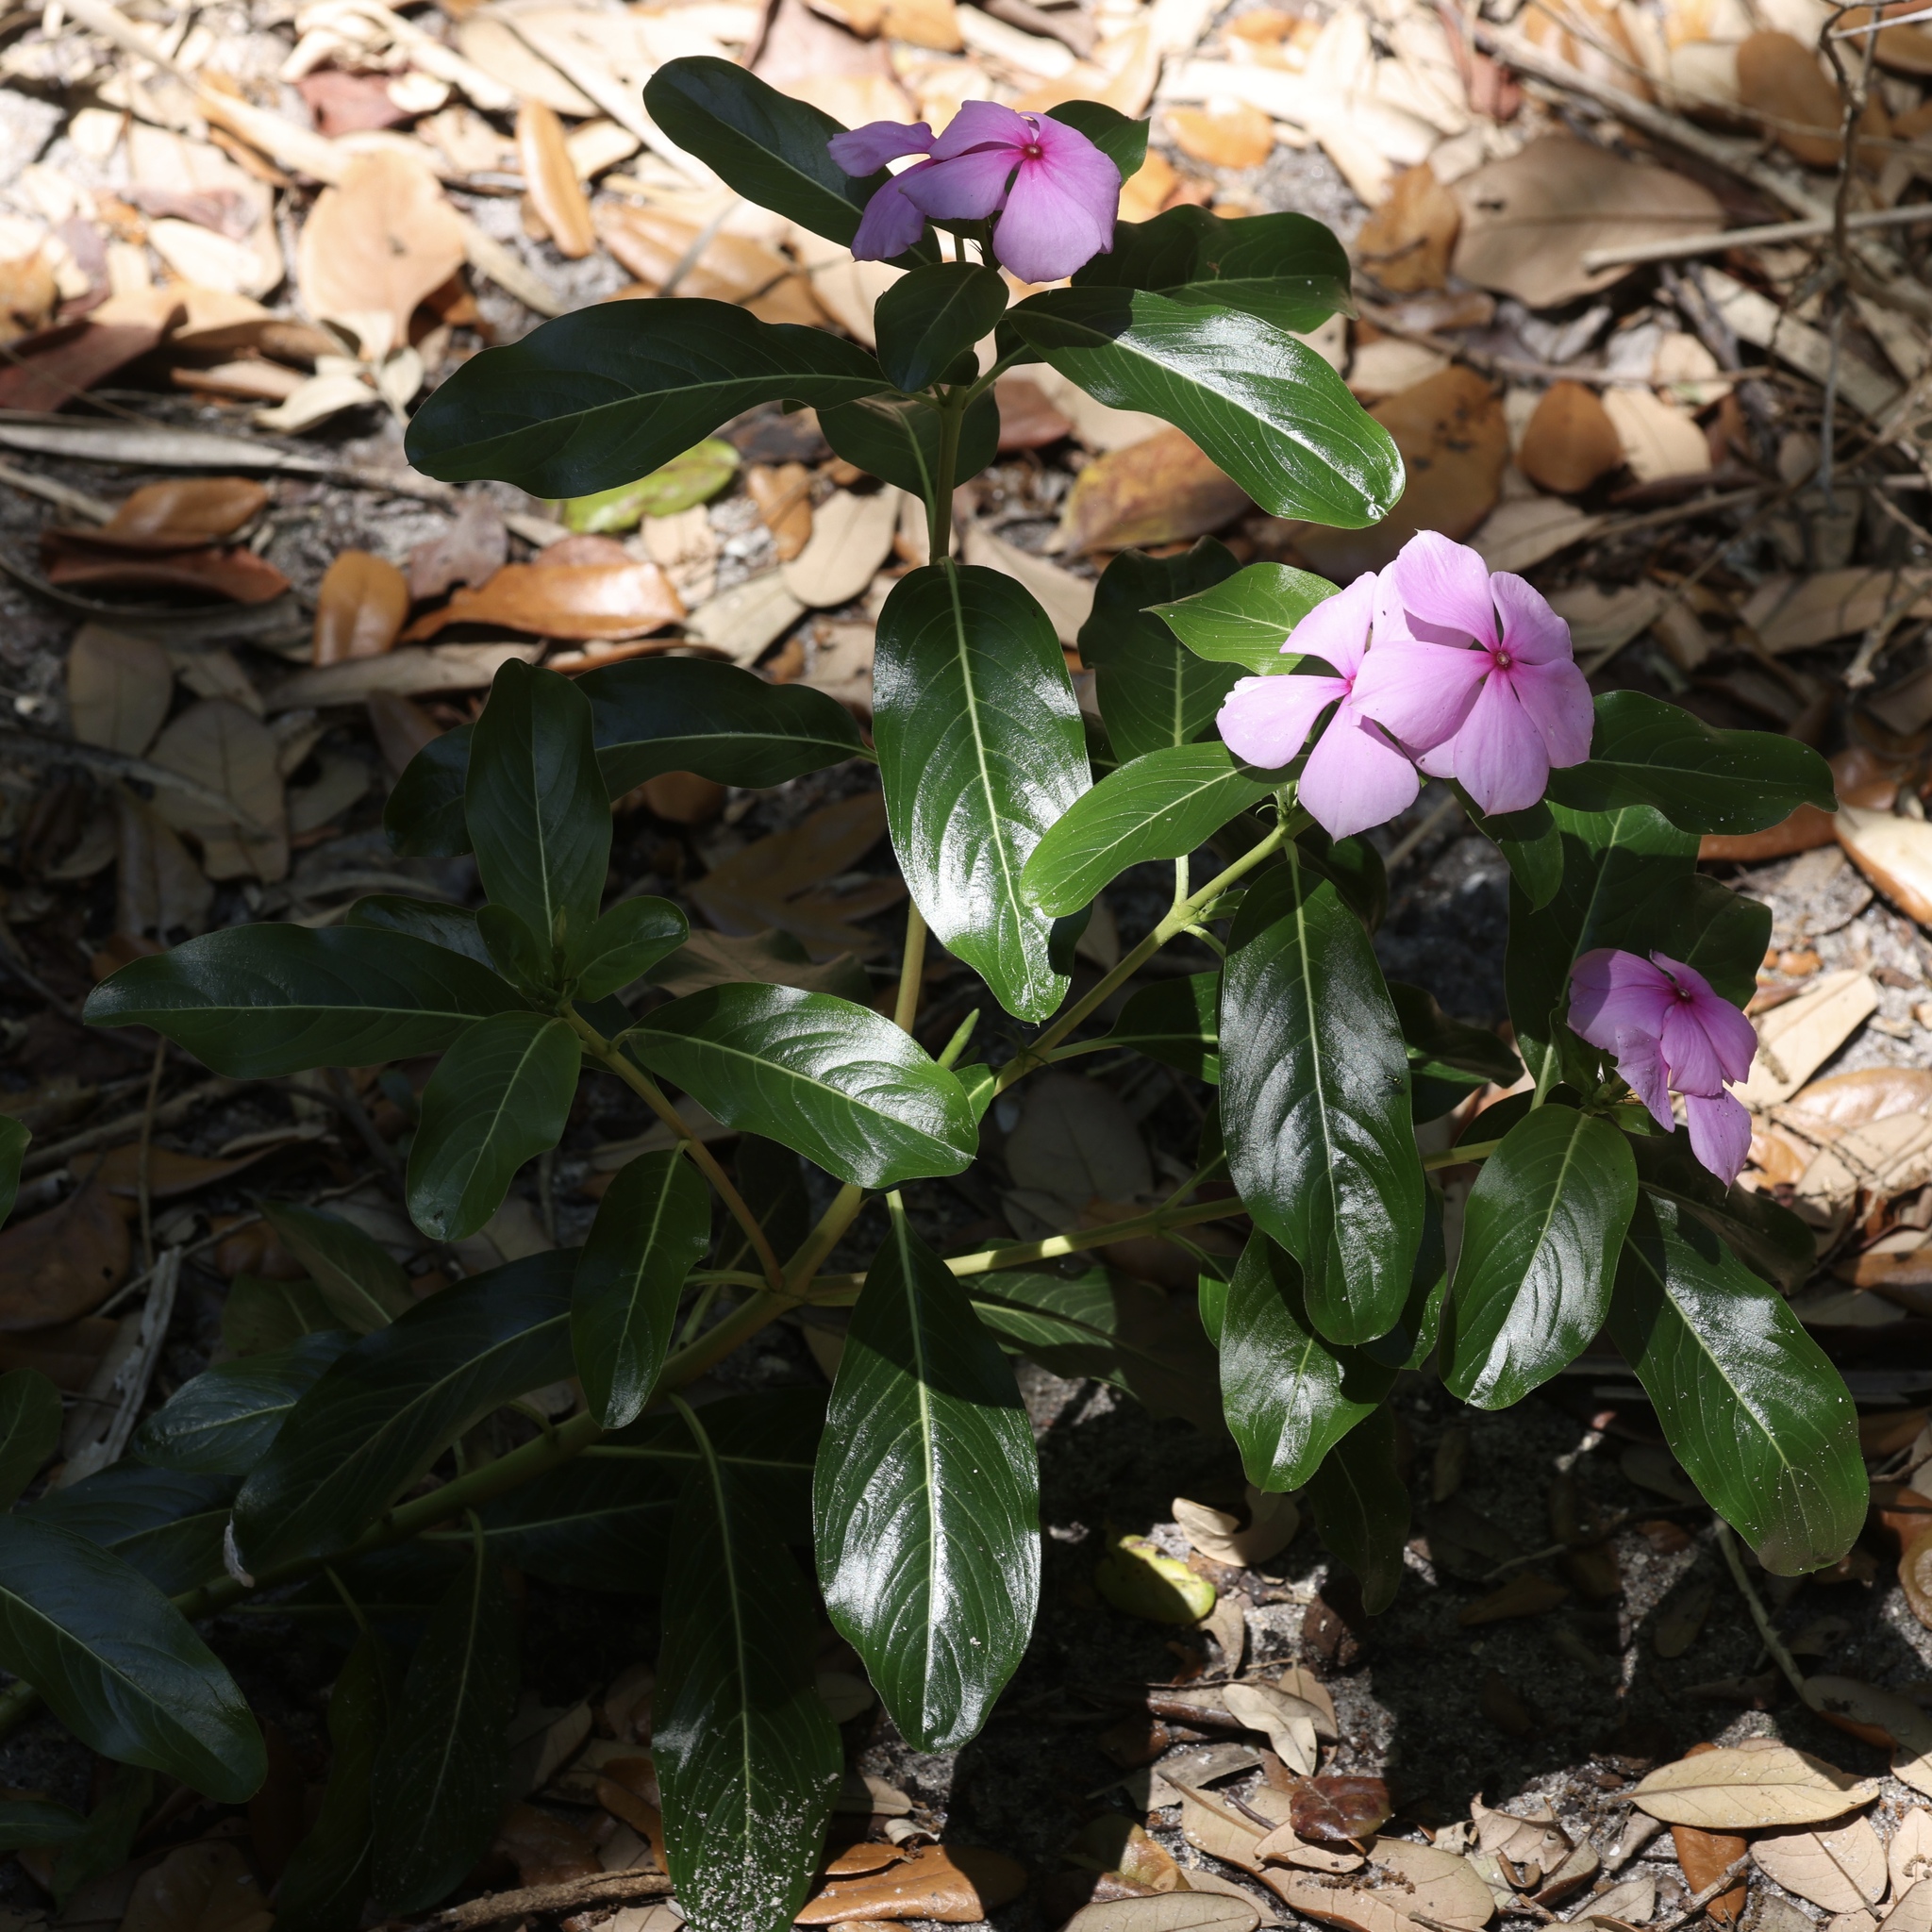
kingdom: Plantae
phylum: Tracheophyta
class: Magnoliopsida
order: Gentianales
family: Apocynaceae
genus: Catharanthus
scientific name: Catharanthus roseus
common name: Madagascar periwinkle
